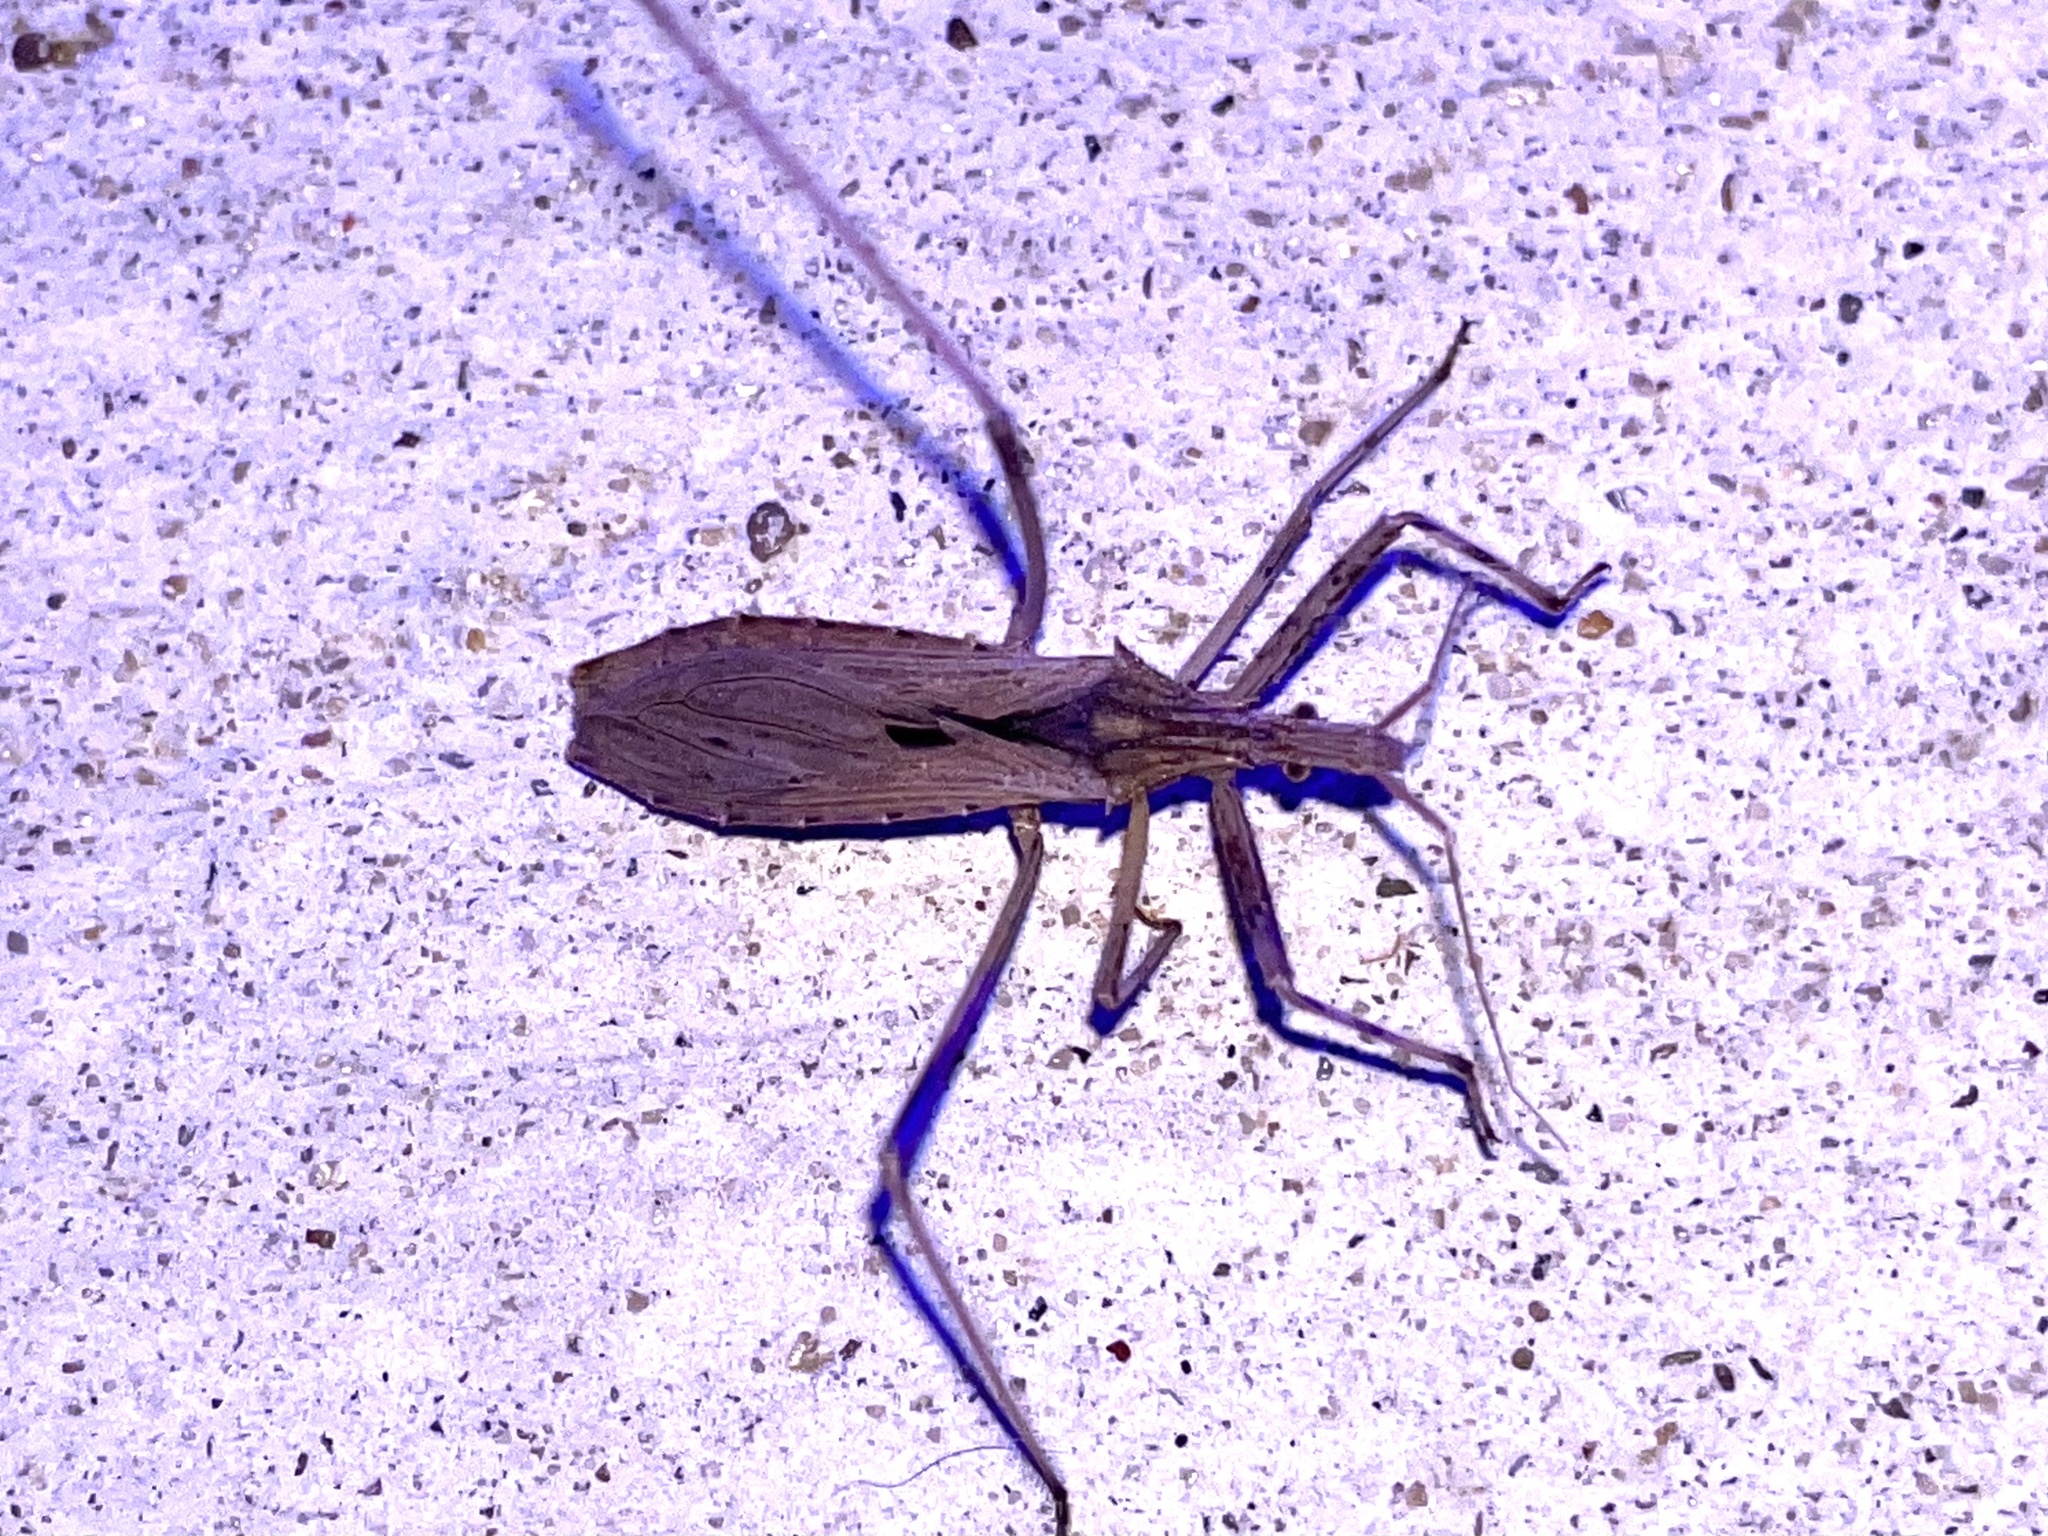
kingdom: Animalia
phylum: Arthropoda
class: Insecta
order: Hemiptera
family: Reduviidae
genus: Stenopoda
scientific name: Stenopoda spinulosa
